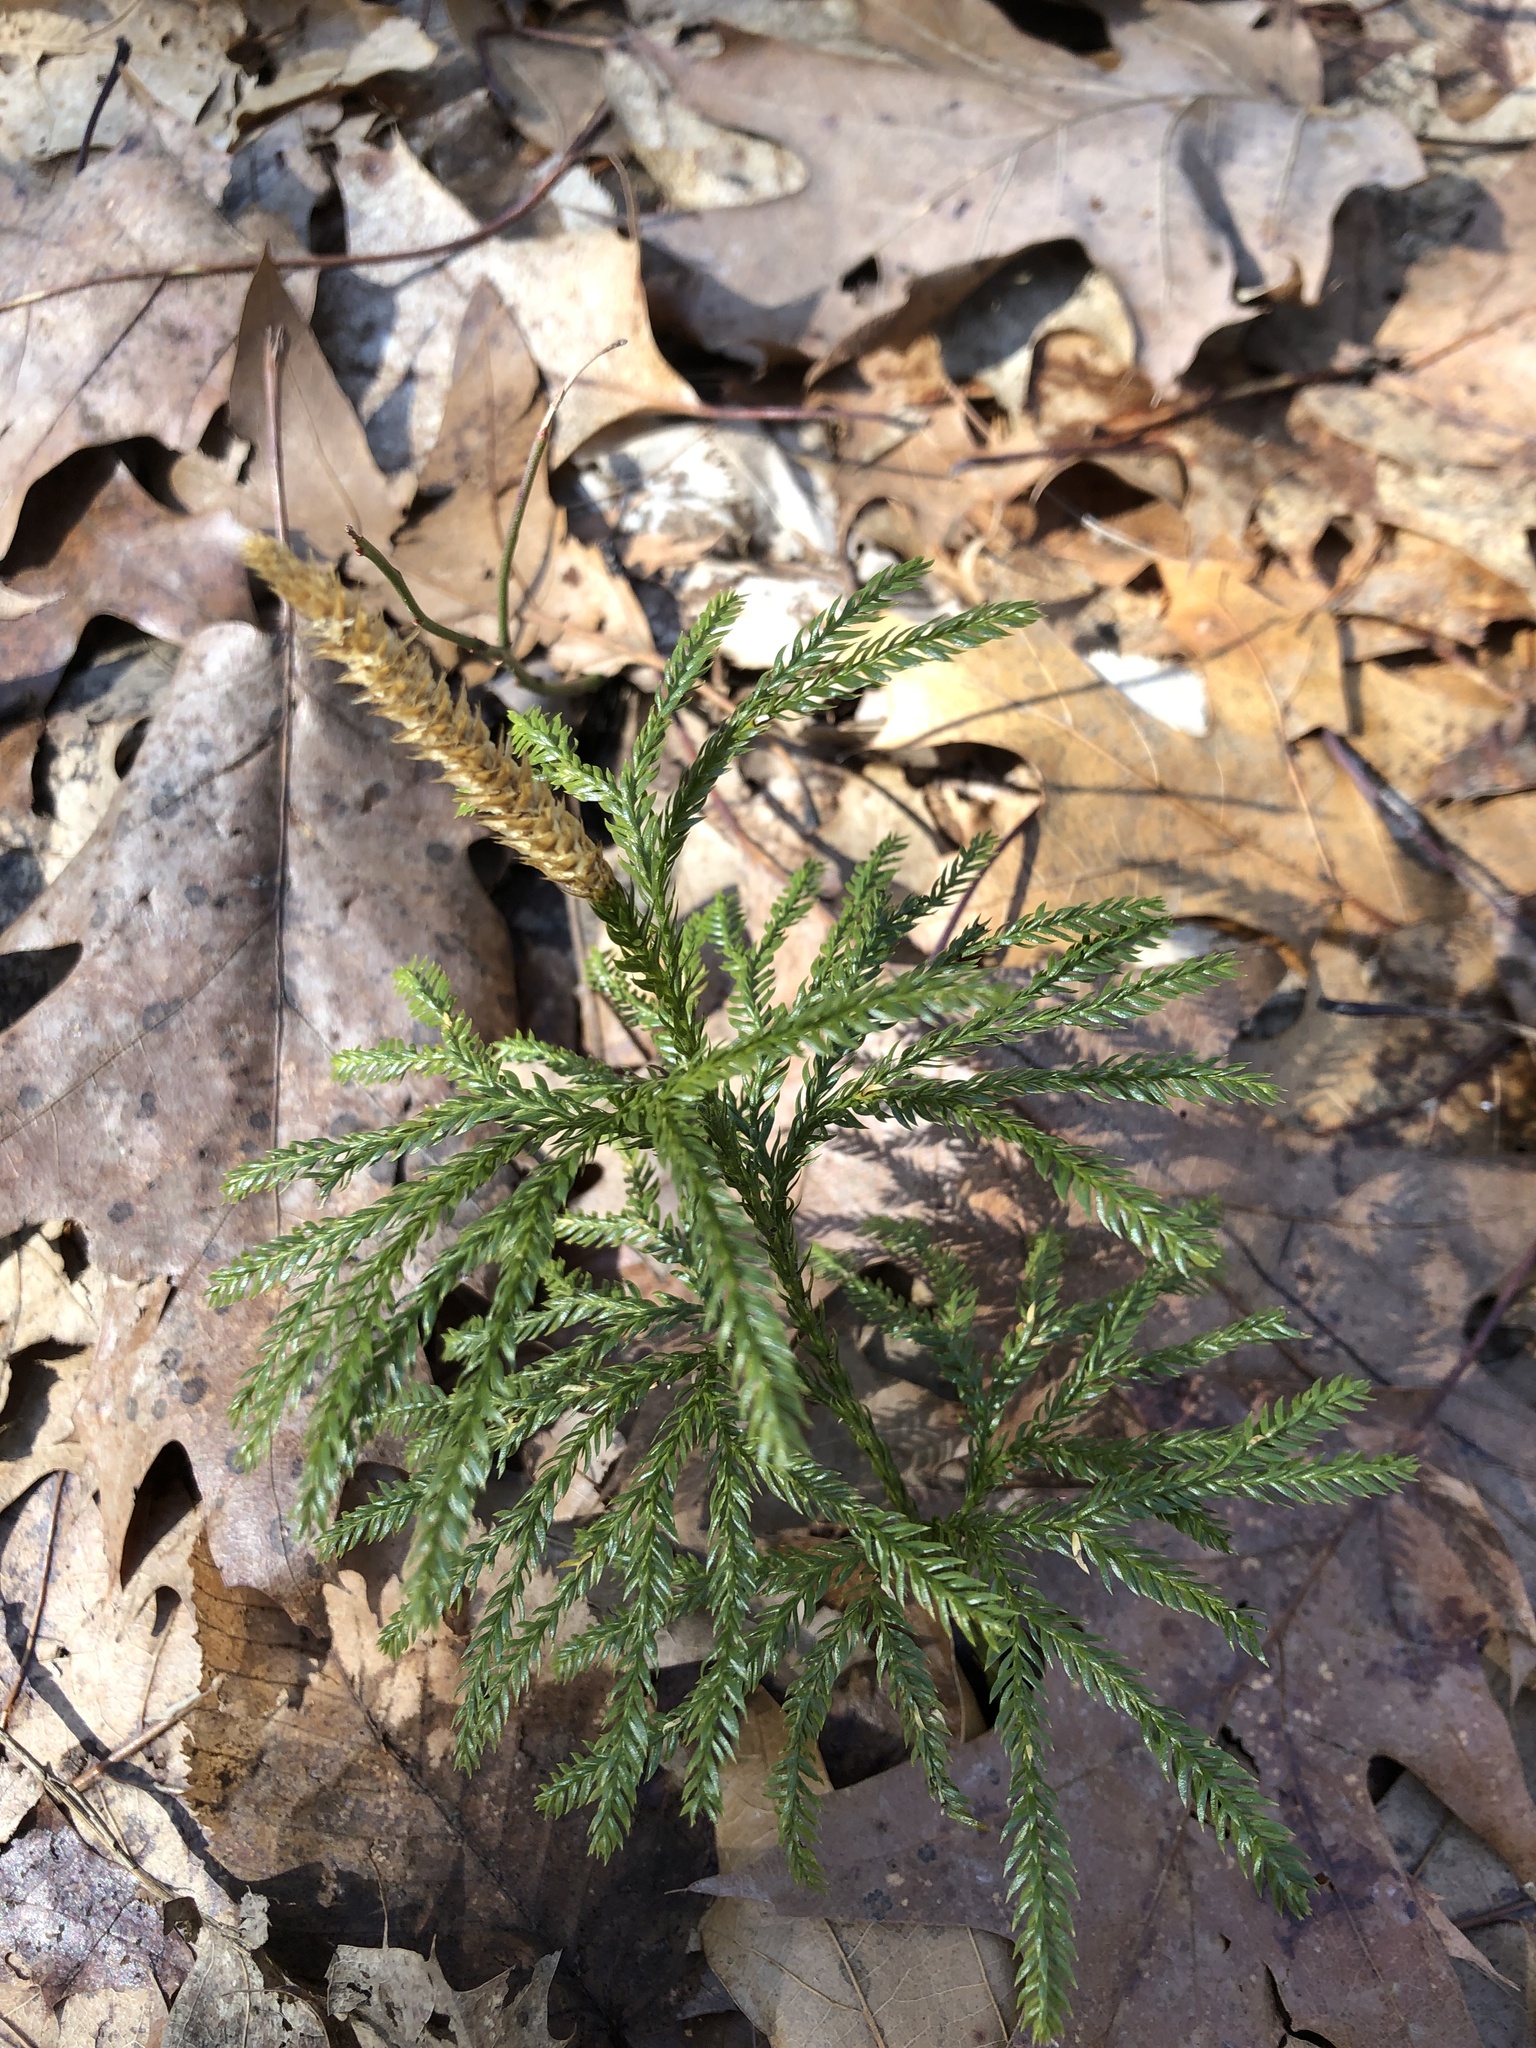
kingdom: Plantae
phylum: Tracheophyta
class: Lycopodiopsida
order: Lycopodiales
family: Lycopodiaceae
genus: Dendrolycopodium
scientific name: Dendrolycopodium obscurum
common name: Common ground-pine
